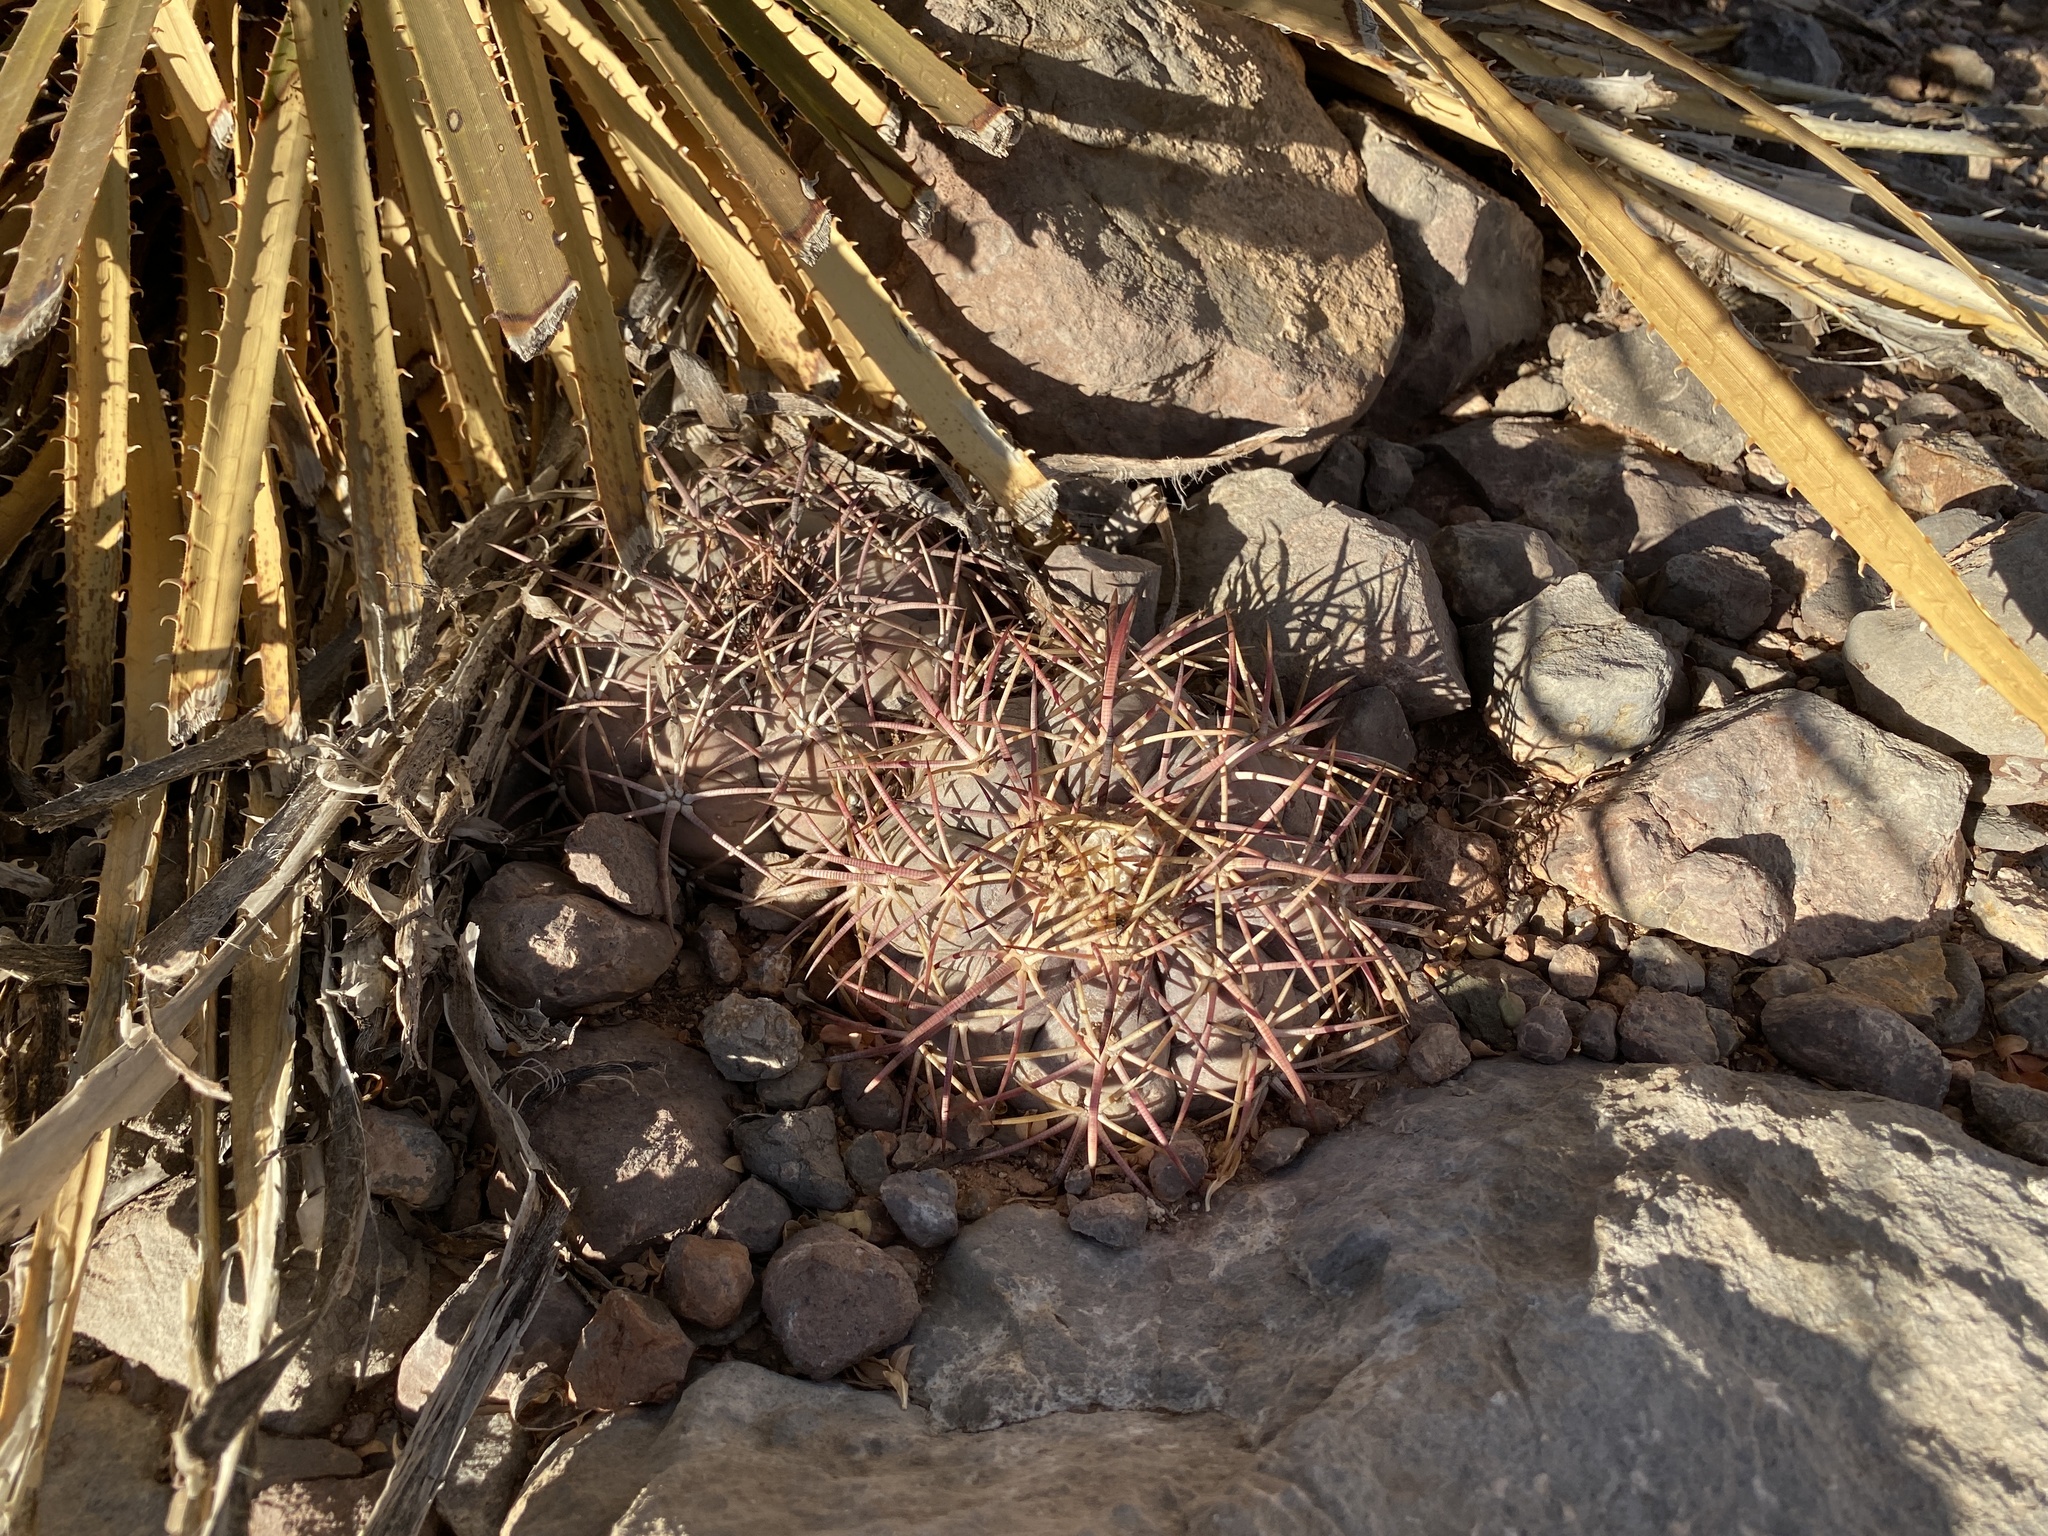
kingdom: Plantae
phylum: Tracheophyta
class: Magnoliopsida
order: Caryophyllales
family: Cactaceae
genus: Echinocactus
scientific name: Echinocactus horizonthalonius
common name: Devilshead
